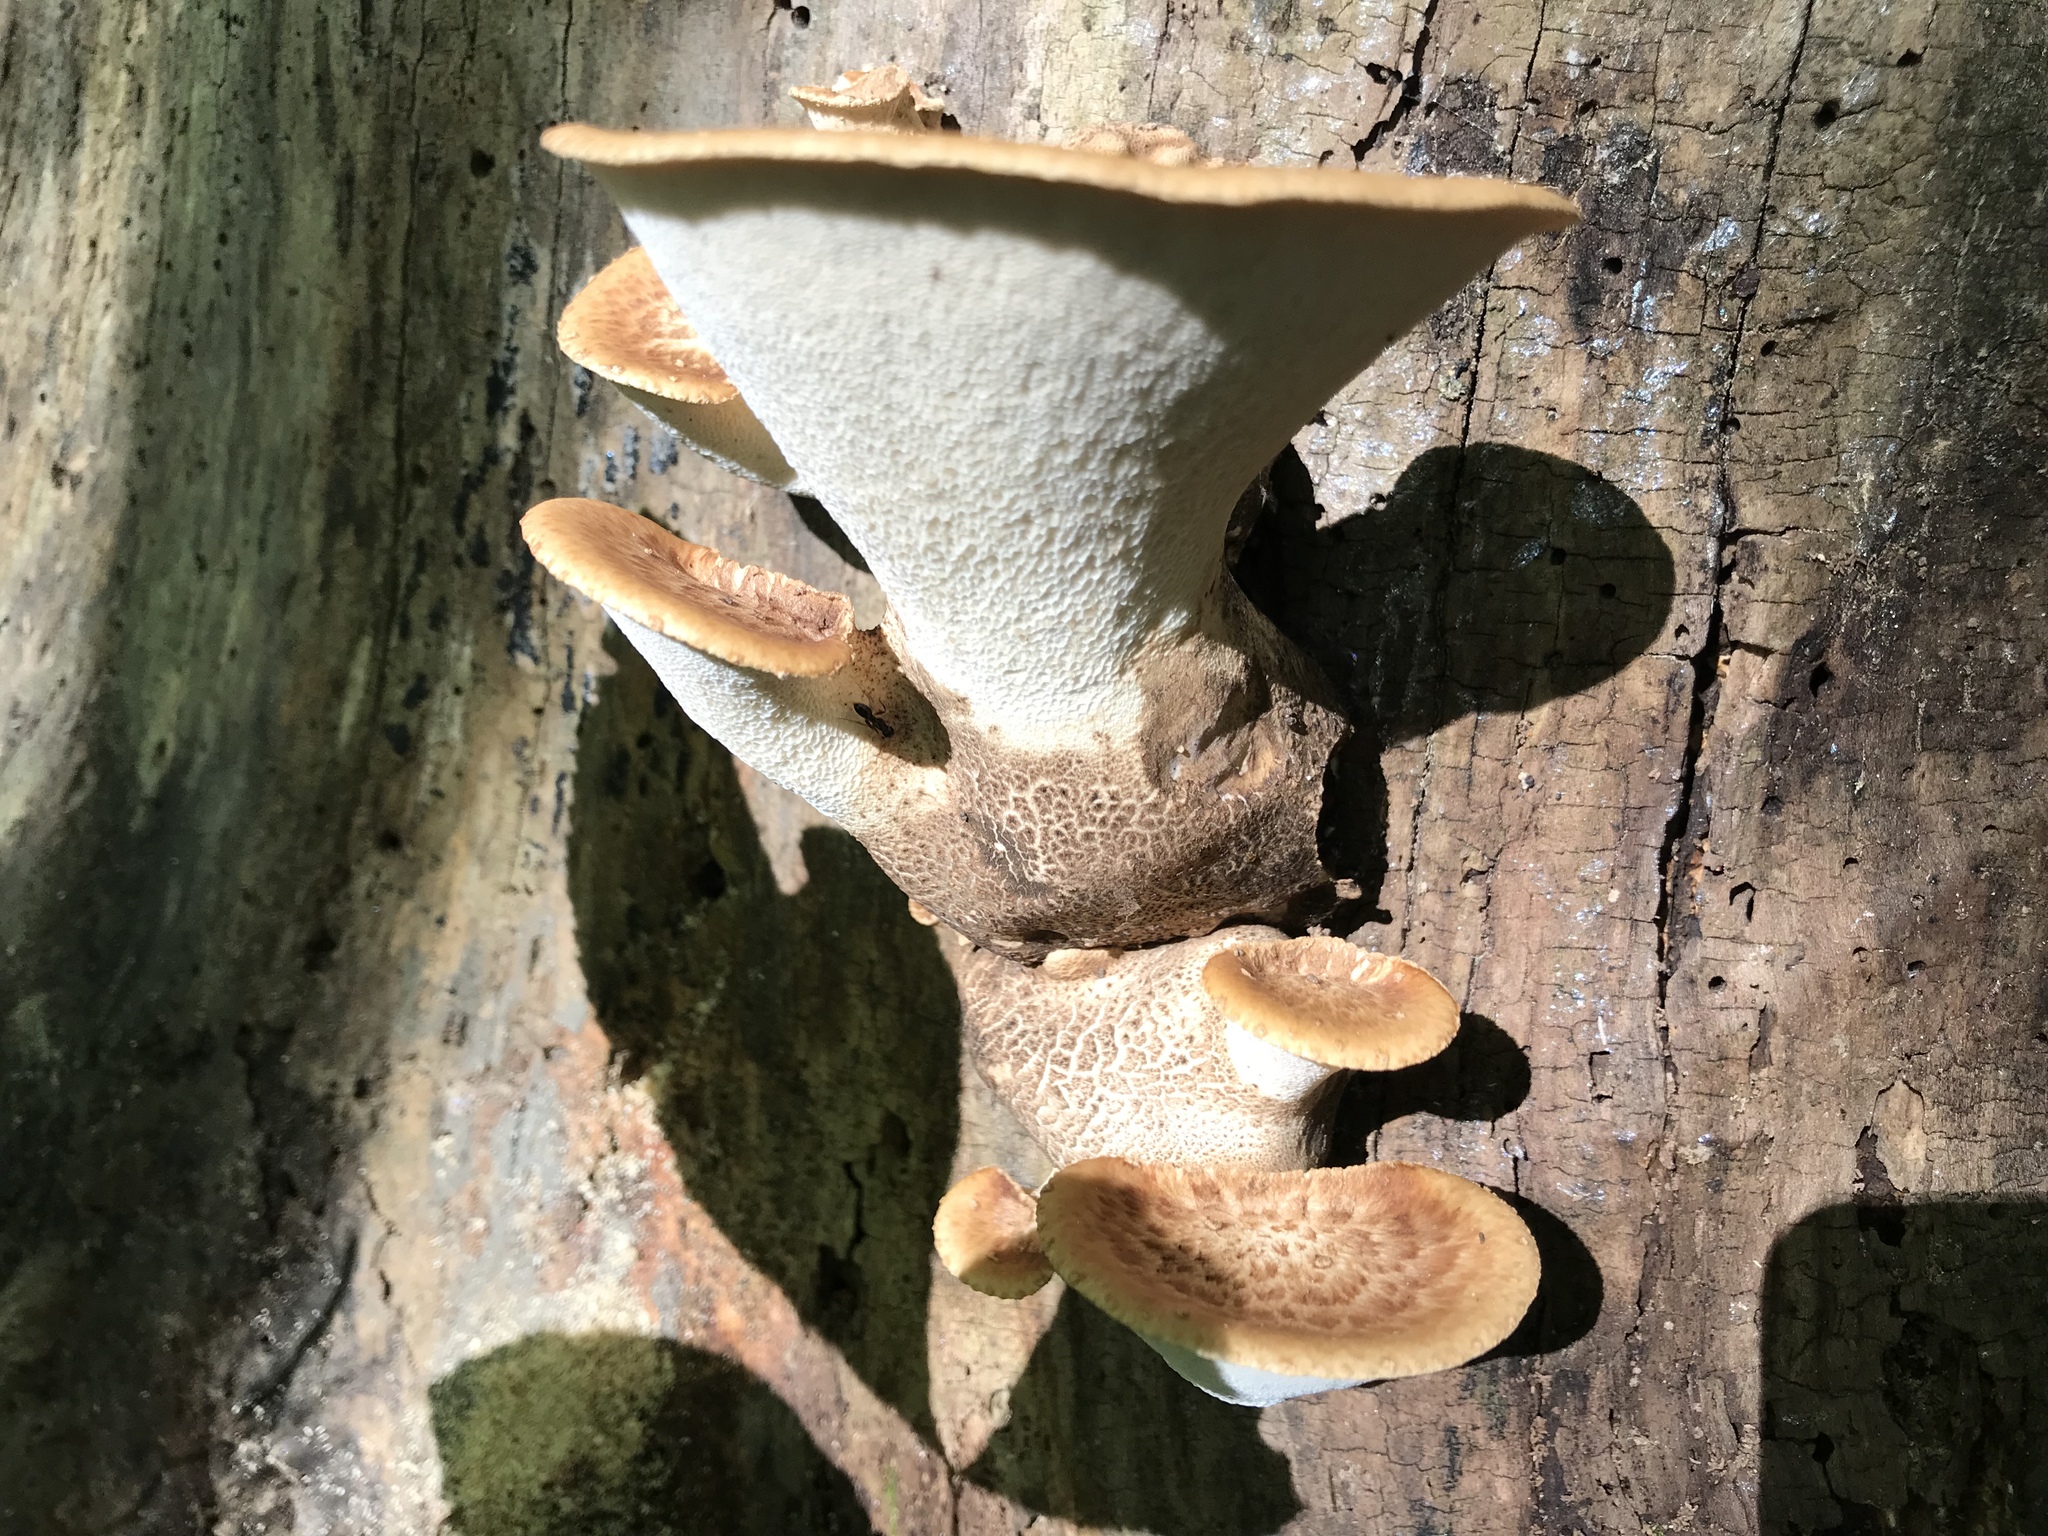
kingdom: Fungi
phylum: Basidiomycota
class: Agaricomycetes
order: Polyporales
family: Polyporaceae
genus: Cerioporus
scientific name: Cerioporus squamosus
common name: Dryad's saddle
